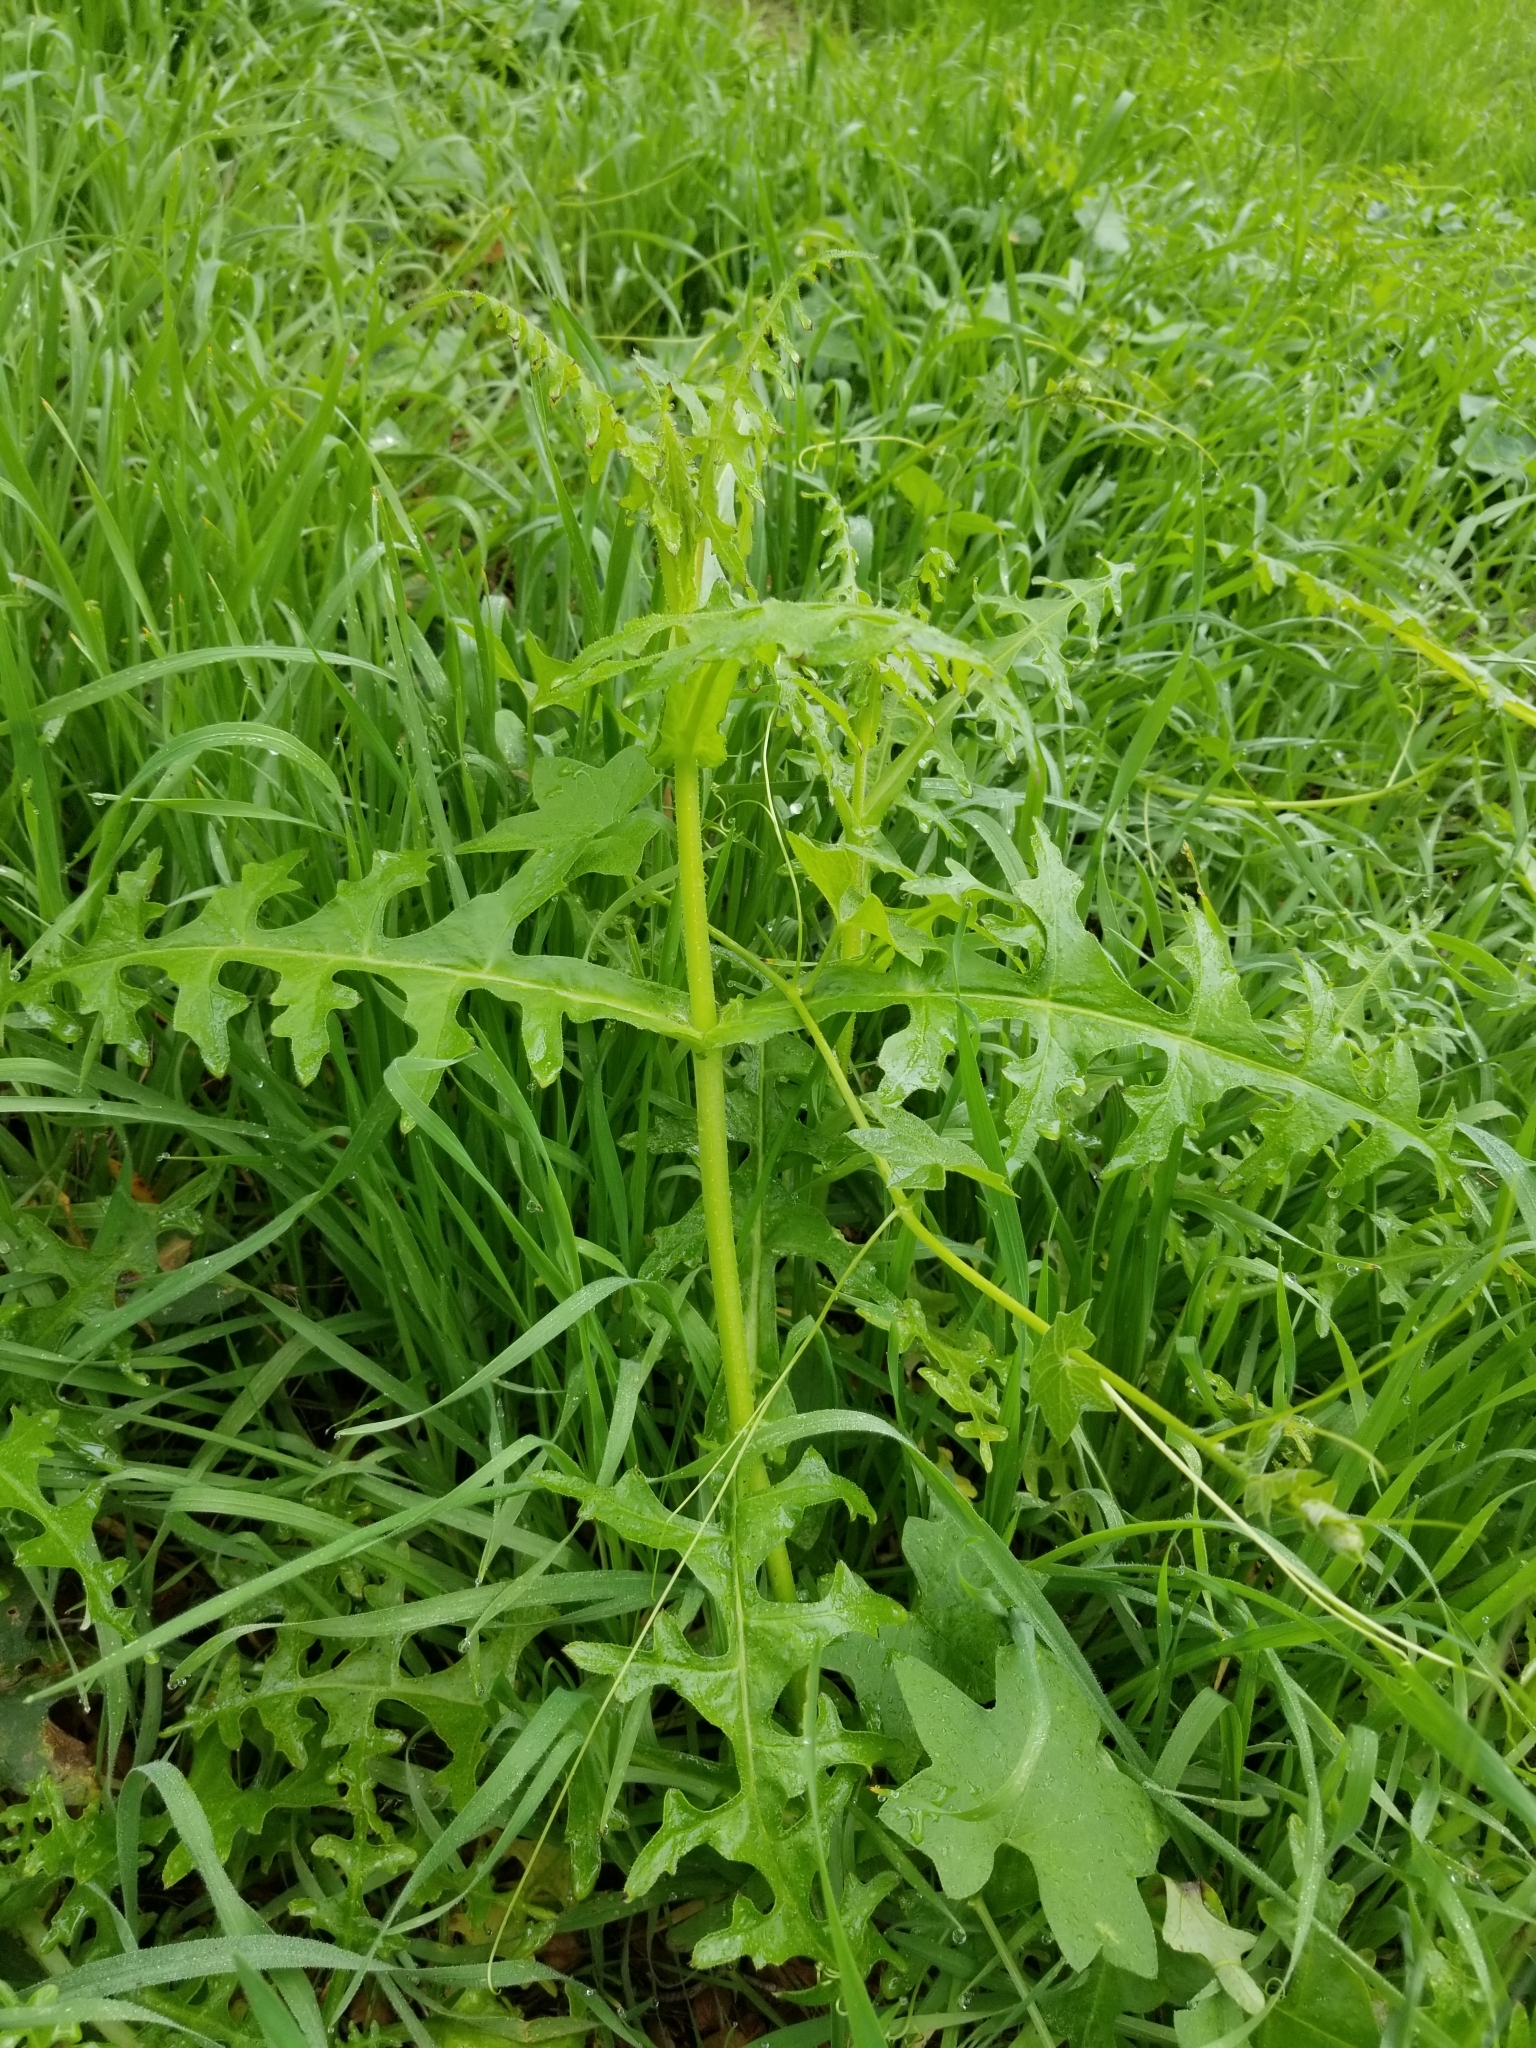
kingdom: Plantae
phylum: Tracheophyta
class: Magnoliopsida
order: Boraginales
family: Hydrophyllaceae
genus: Pholistoma
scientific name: Pholistoma auritum
